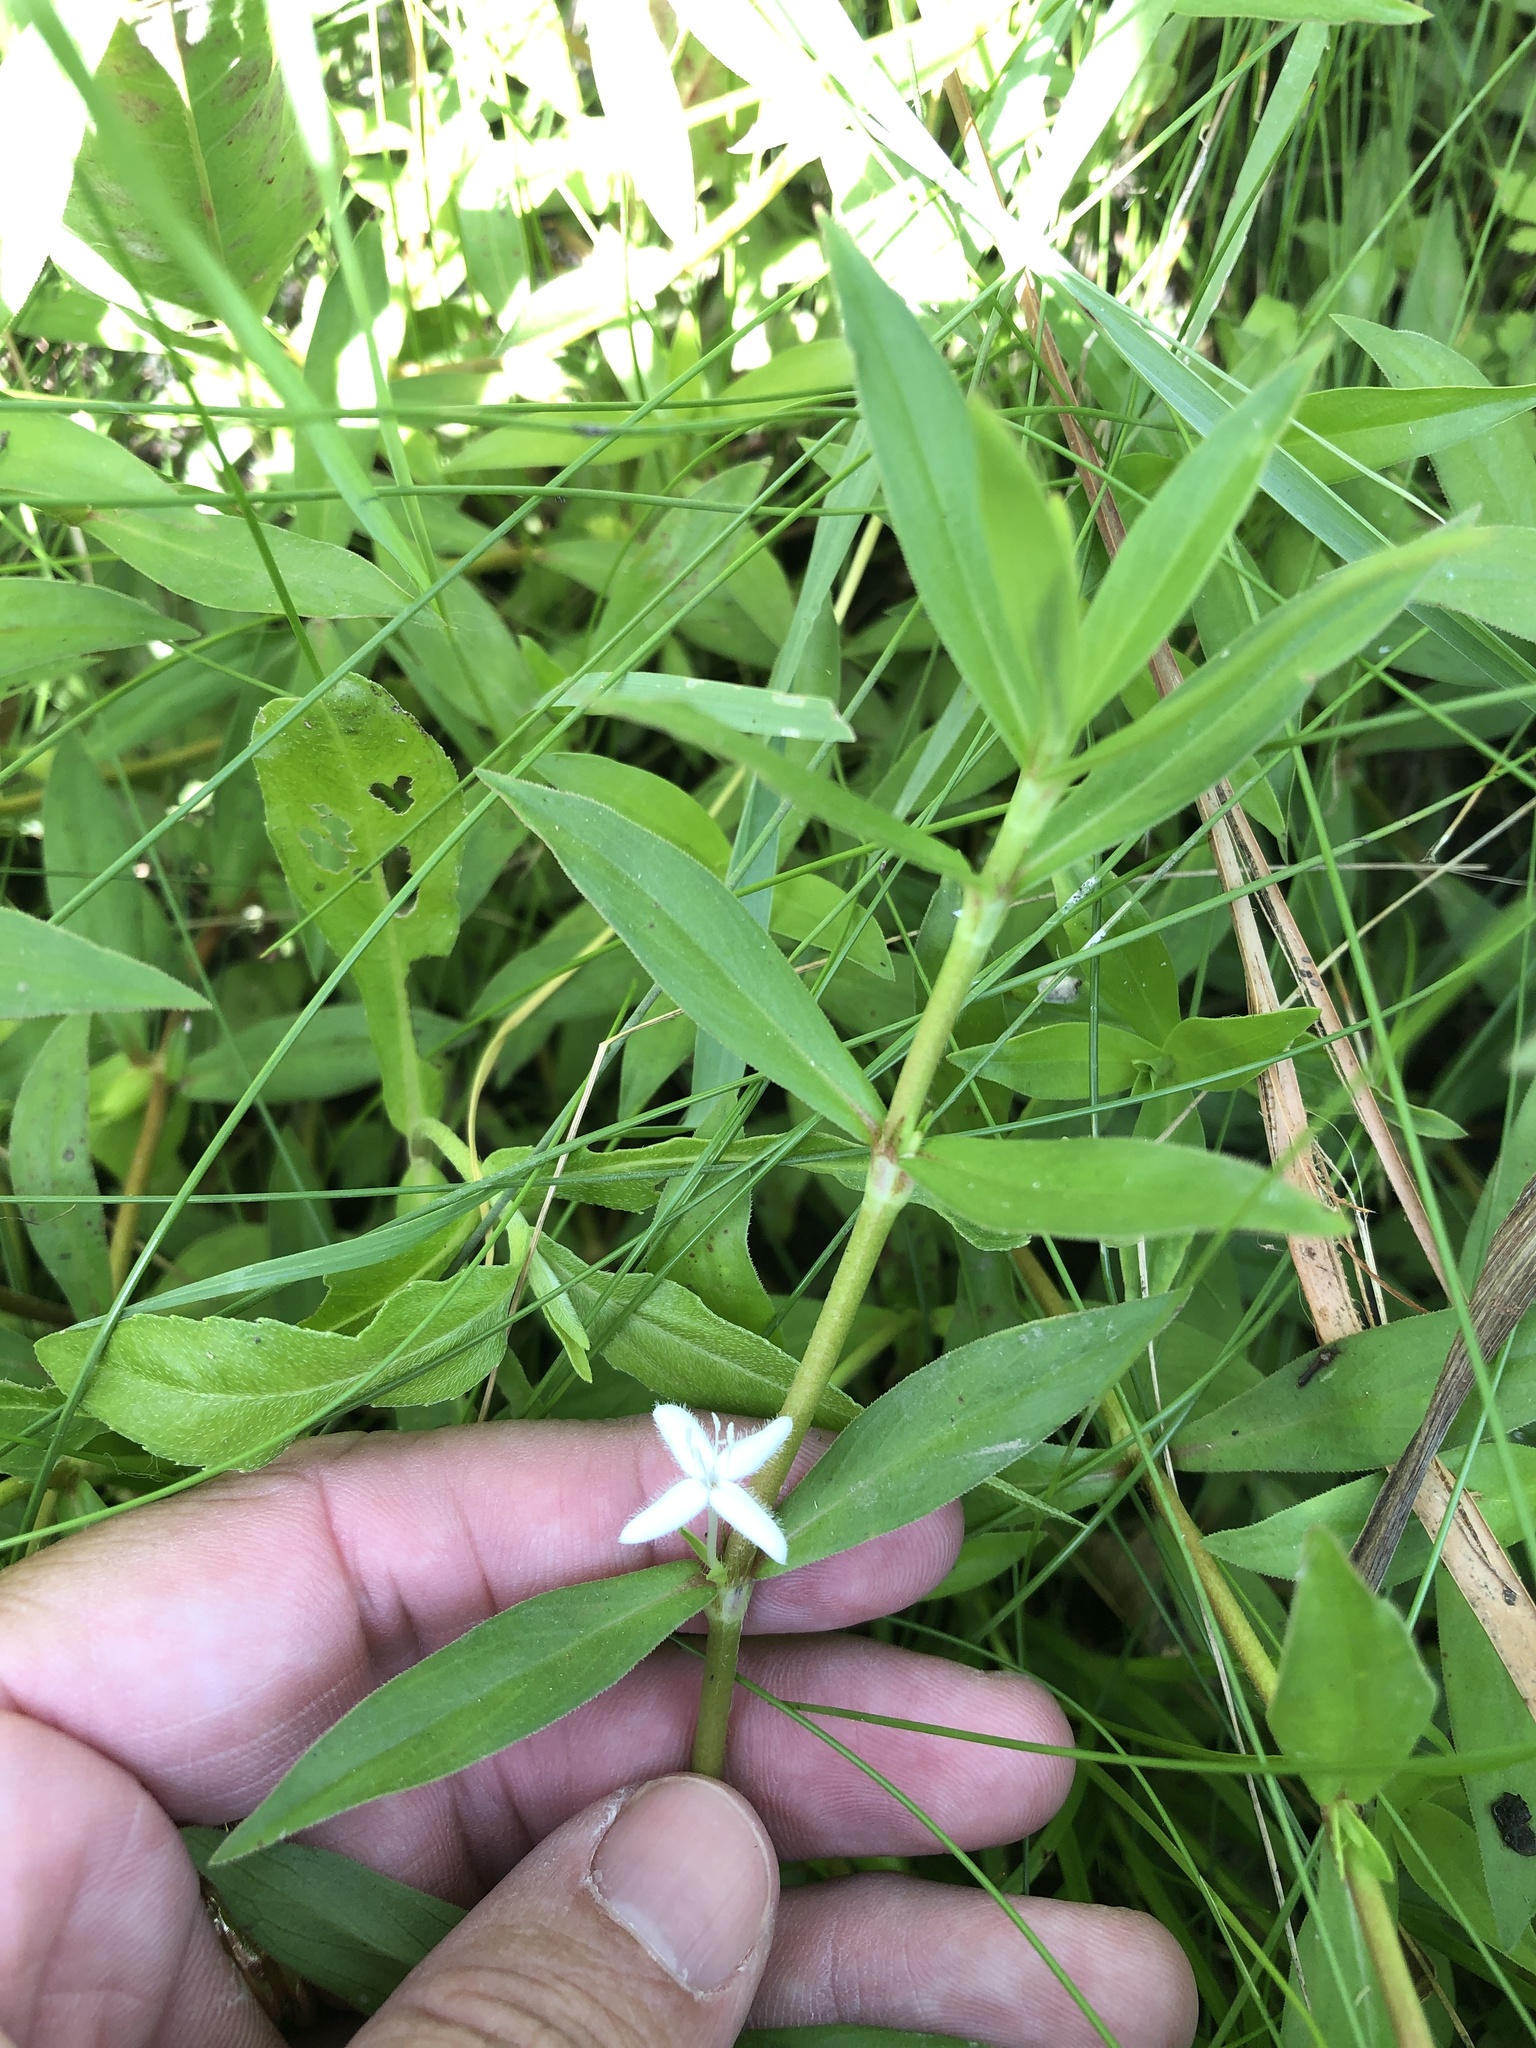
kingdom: Plantae
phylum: Tracheophyta
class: Magnoliopsida
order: Gentianales
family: Rubiaceae
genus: Diodia
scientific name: Diodia virginiana
